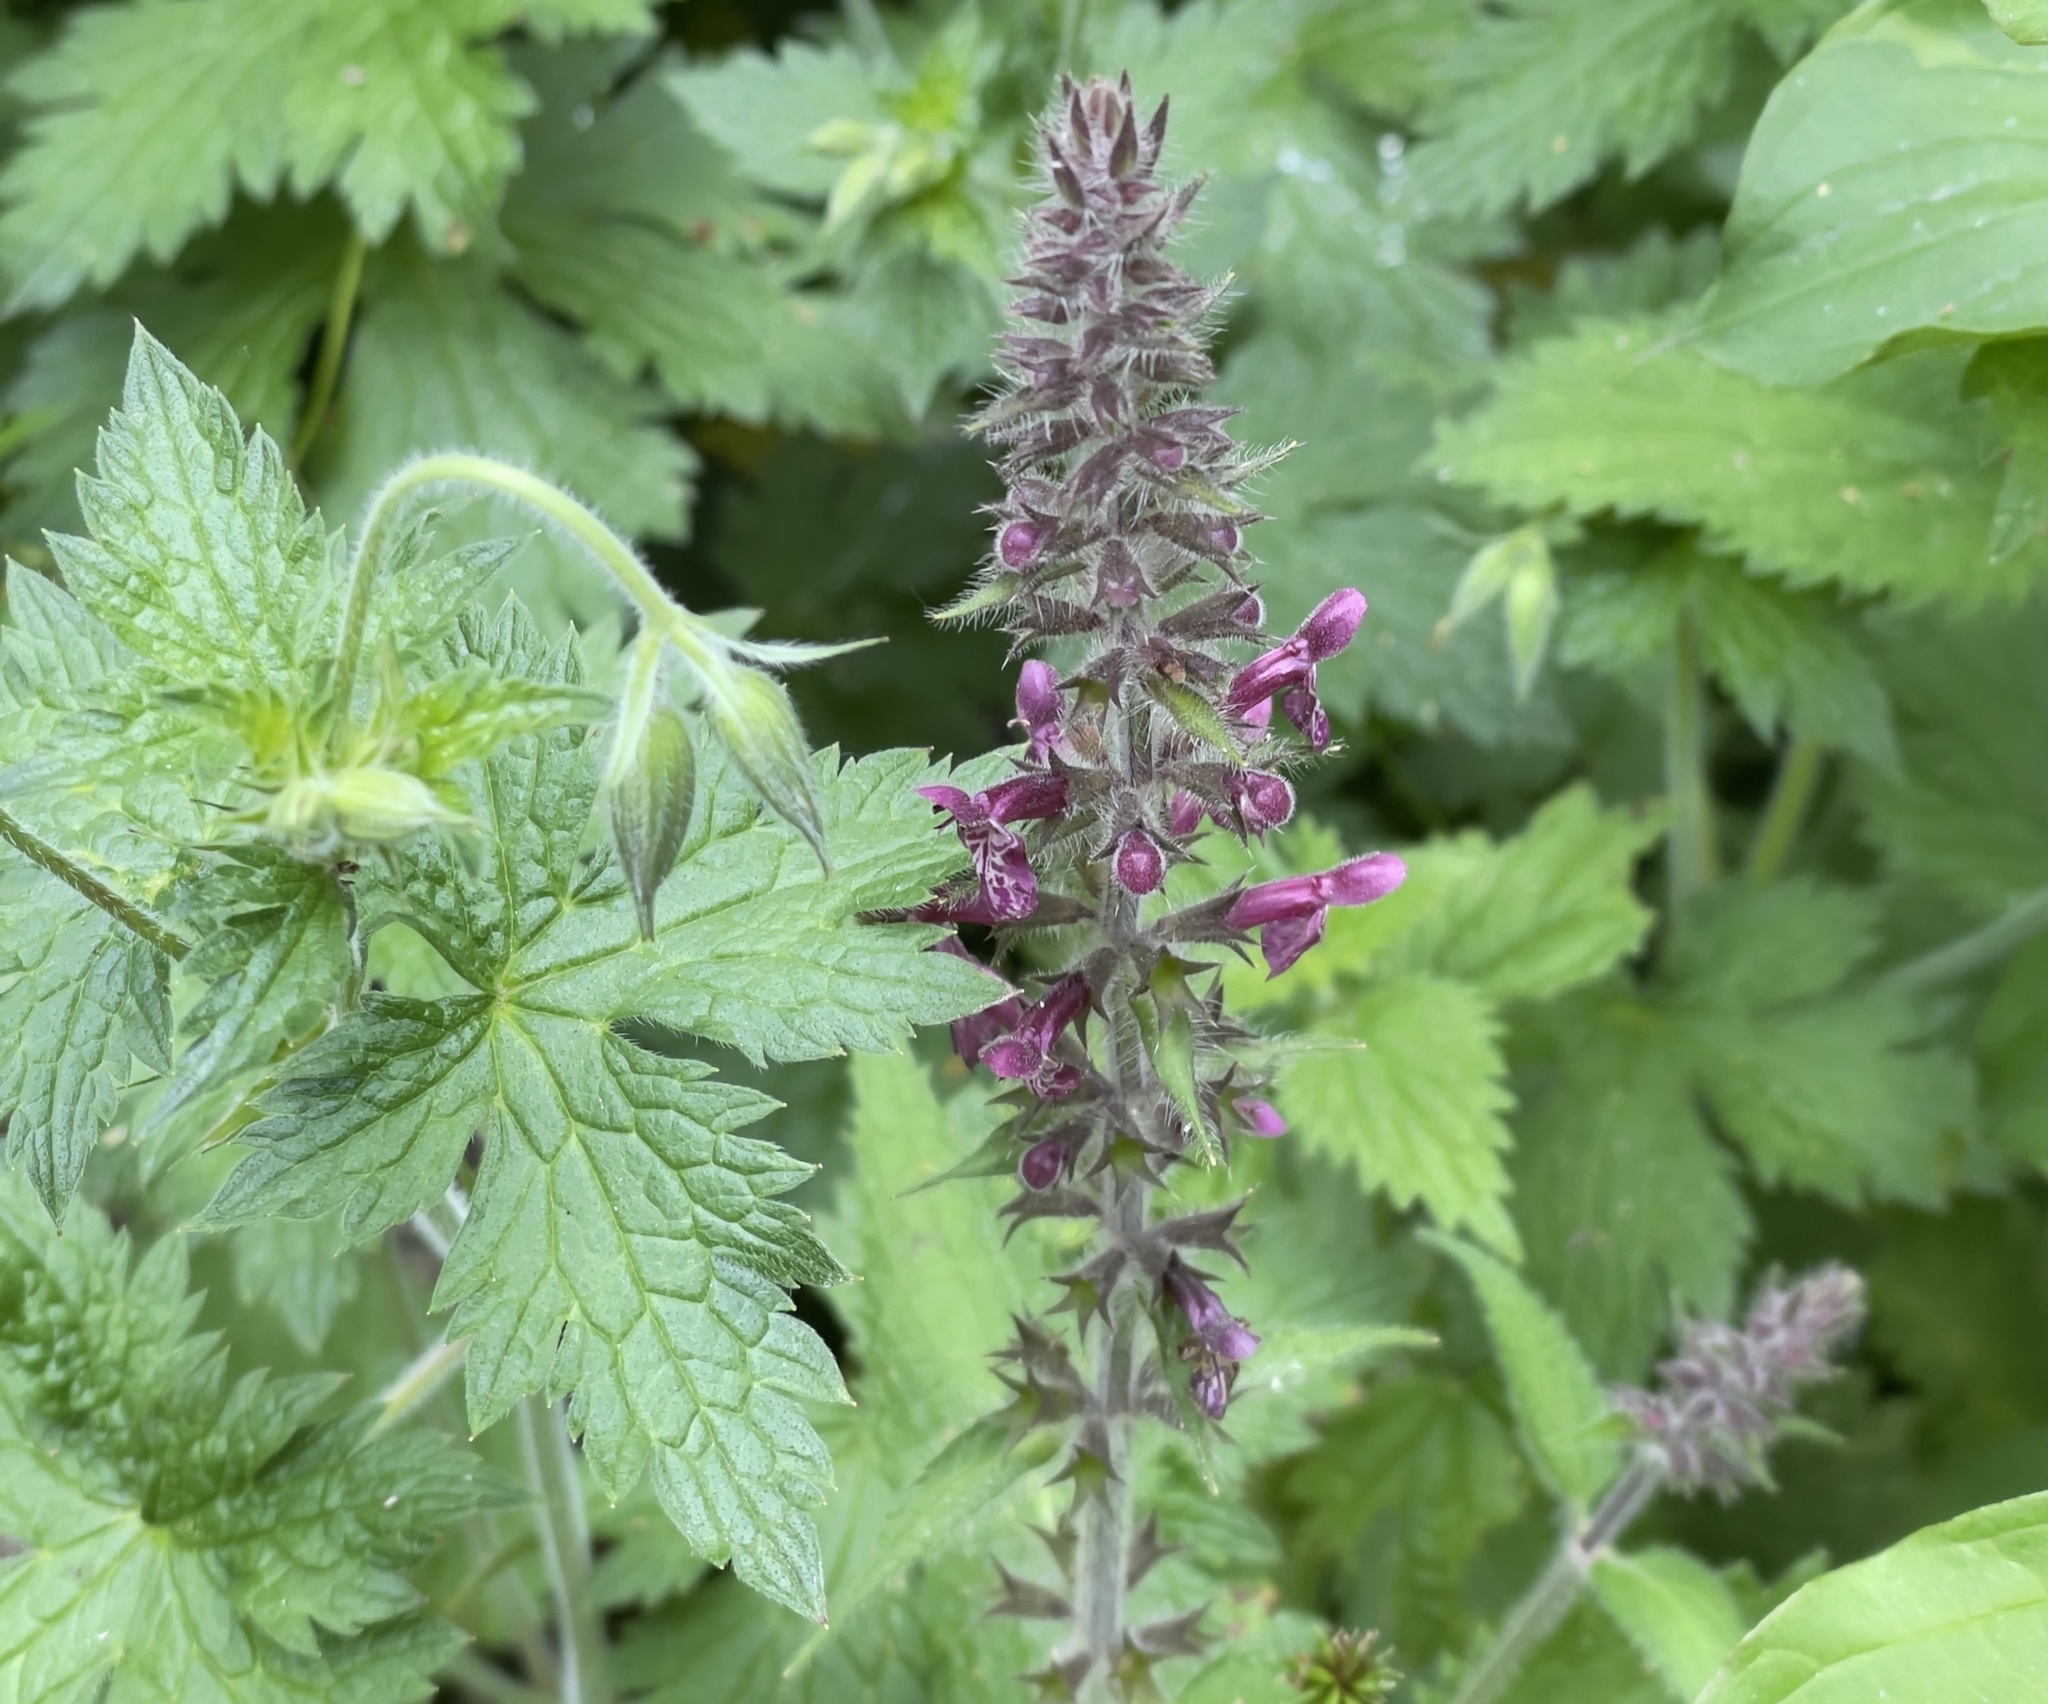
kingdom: Plantae
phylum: Tracheophyta
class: Magnoliopsida
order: Lamiales
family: Lamiaceae
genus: Stachys
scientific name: Stachys sylvatica
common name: Hedge woundwort
